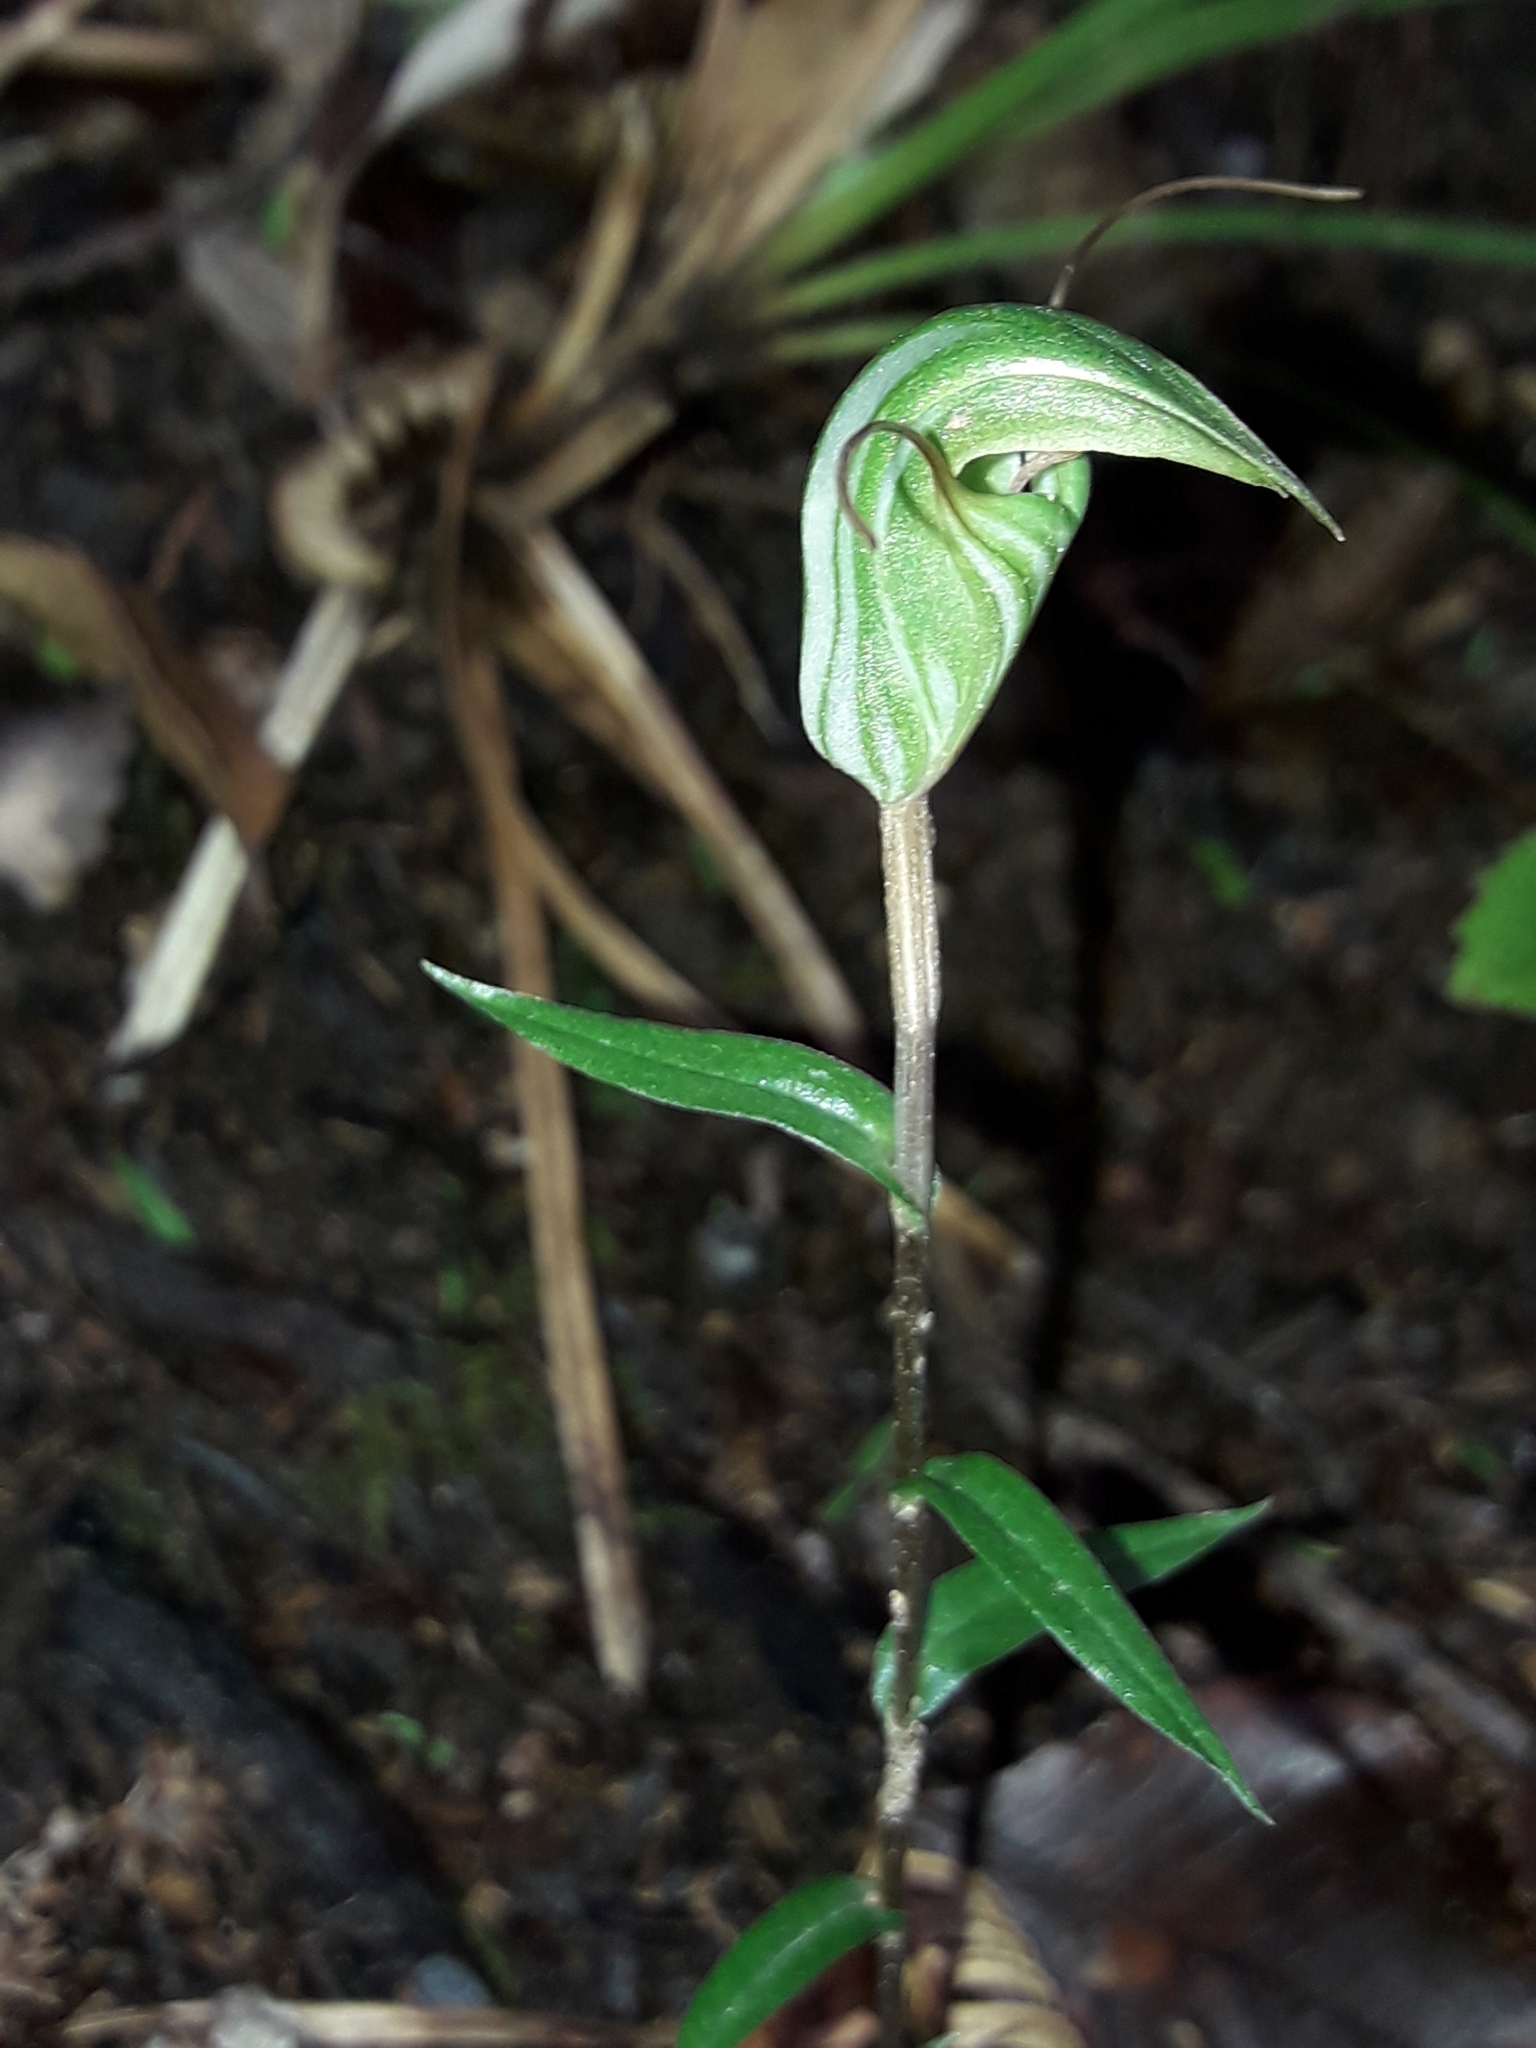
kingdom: Plantae
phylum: Tracheophyta
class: Liliopsida
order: Asparagales
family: Orchidaceae
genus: Pterostylis
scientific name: Pterostylis alobula
